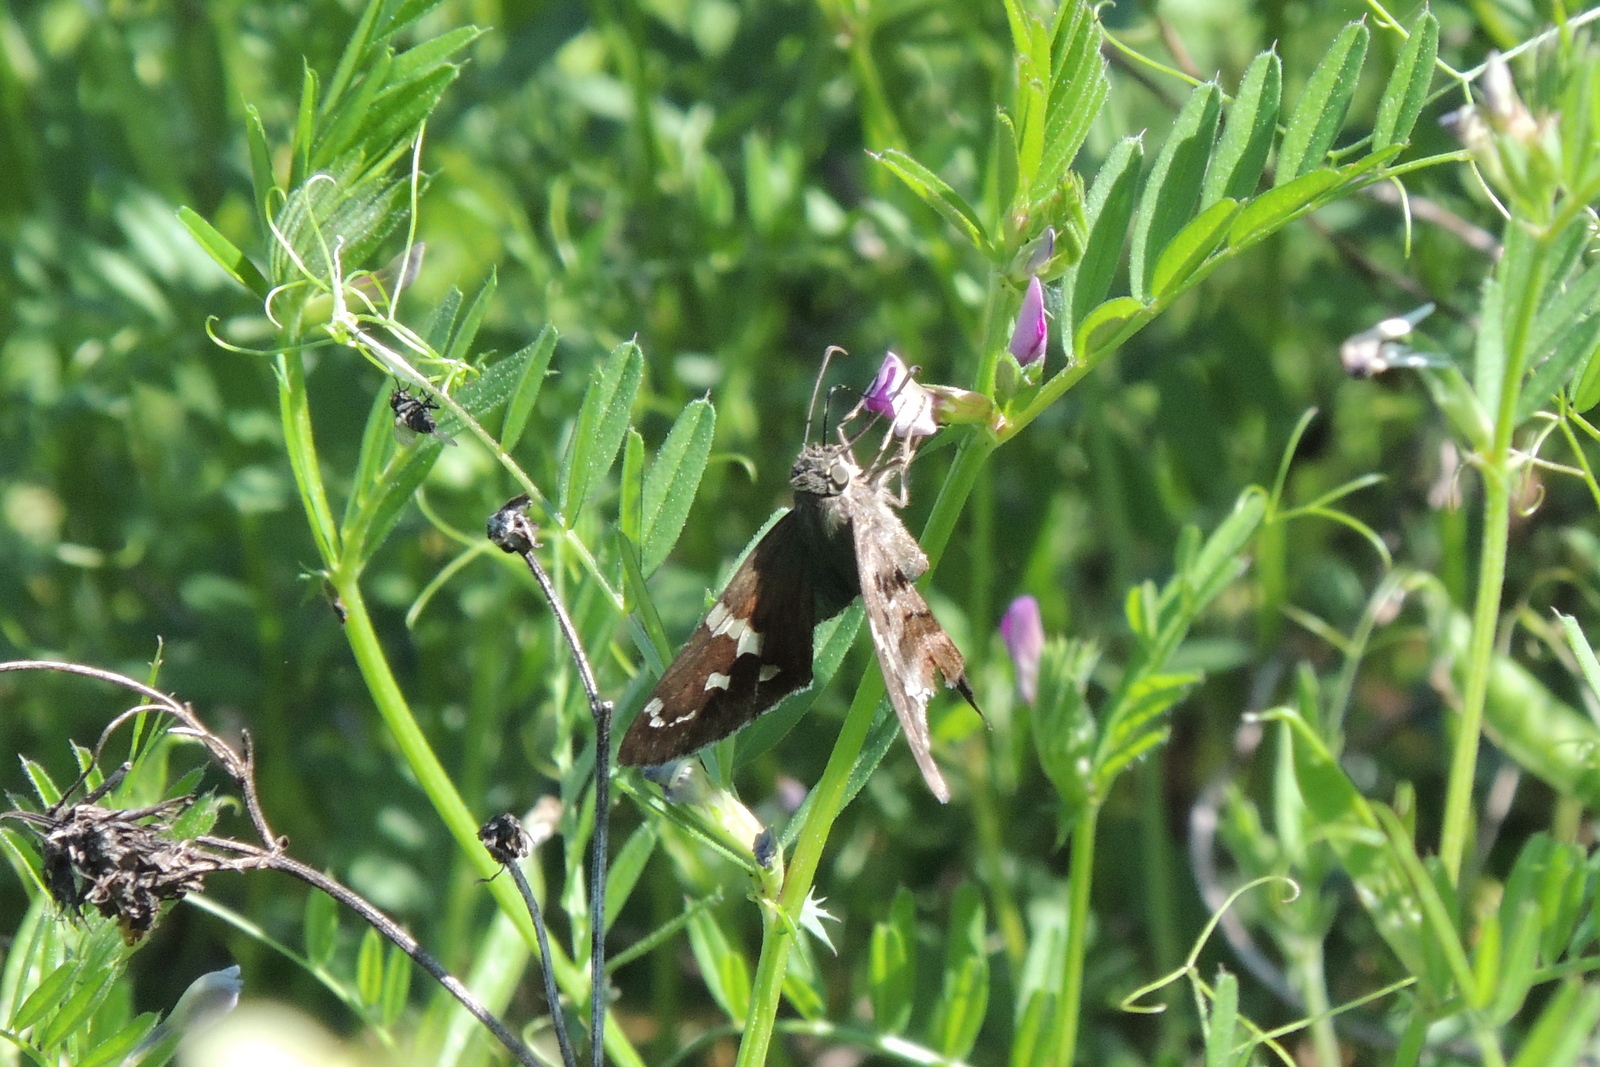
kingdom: Animalia
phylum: Arthropoda
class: Insecta
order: Lepidoptera
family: Hesperiidae
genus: Urbanus
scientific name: Urbanus proteus
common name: Long-tailed skipper
